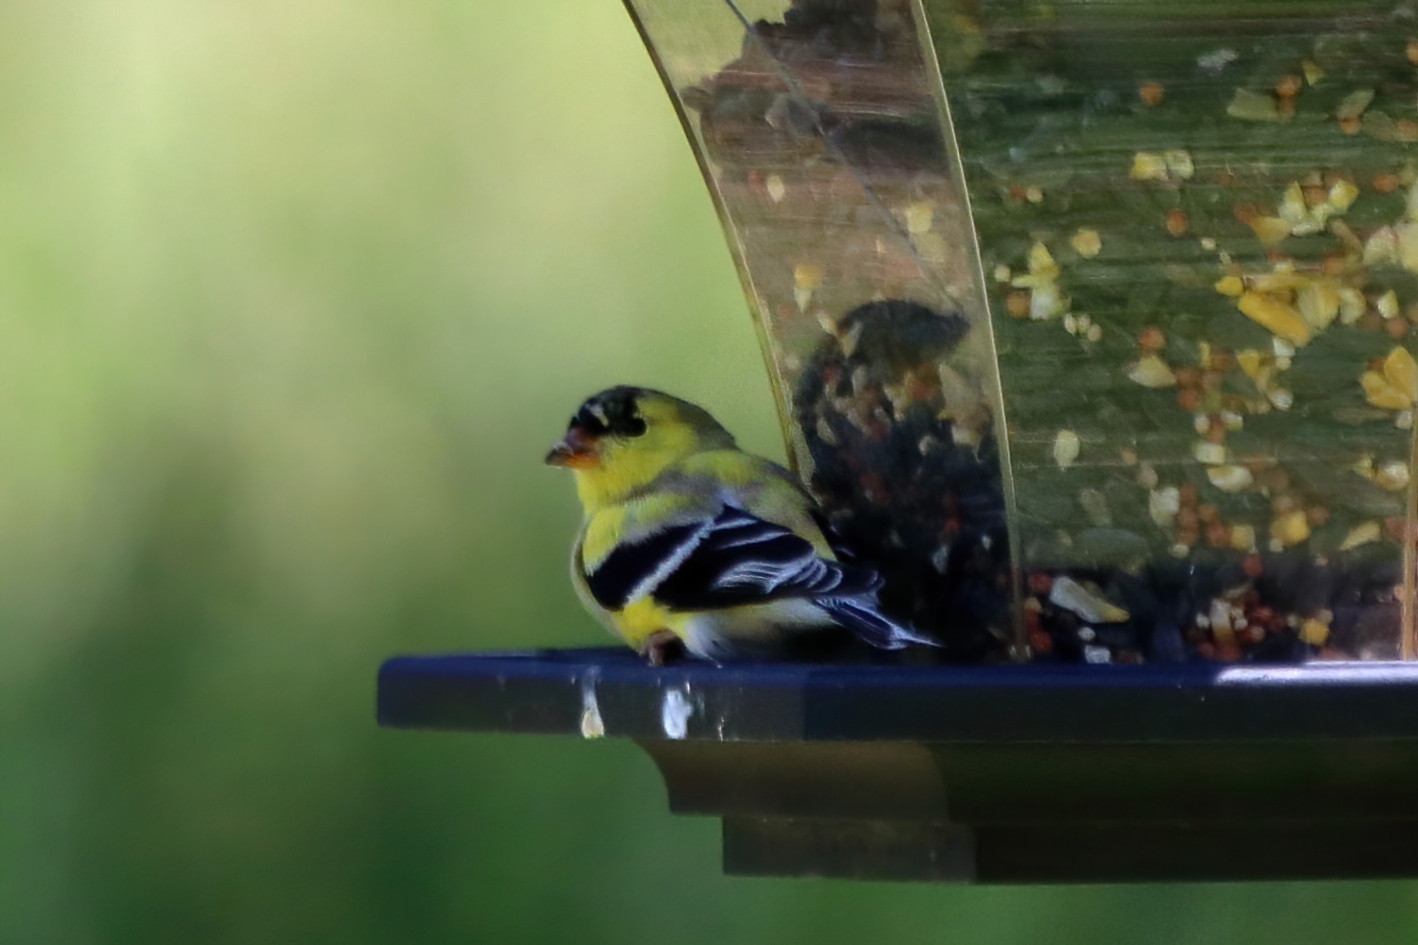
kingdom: Animalia
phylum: Chordata
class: Aves
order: Passeriformes
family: Fringillidae
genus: Spinus
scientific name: Spinus tristis
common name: American goldfinch
